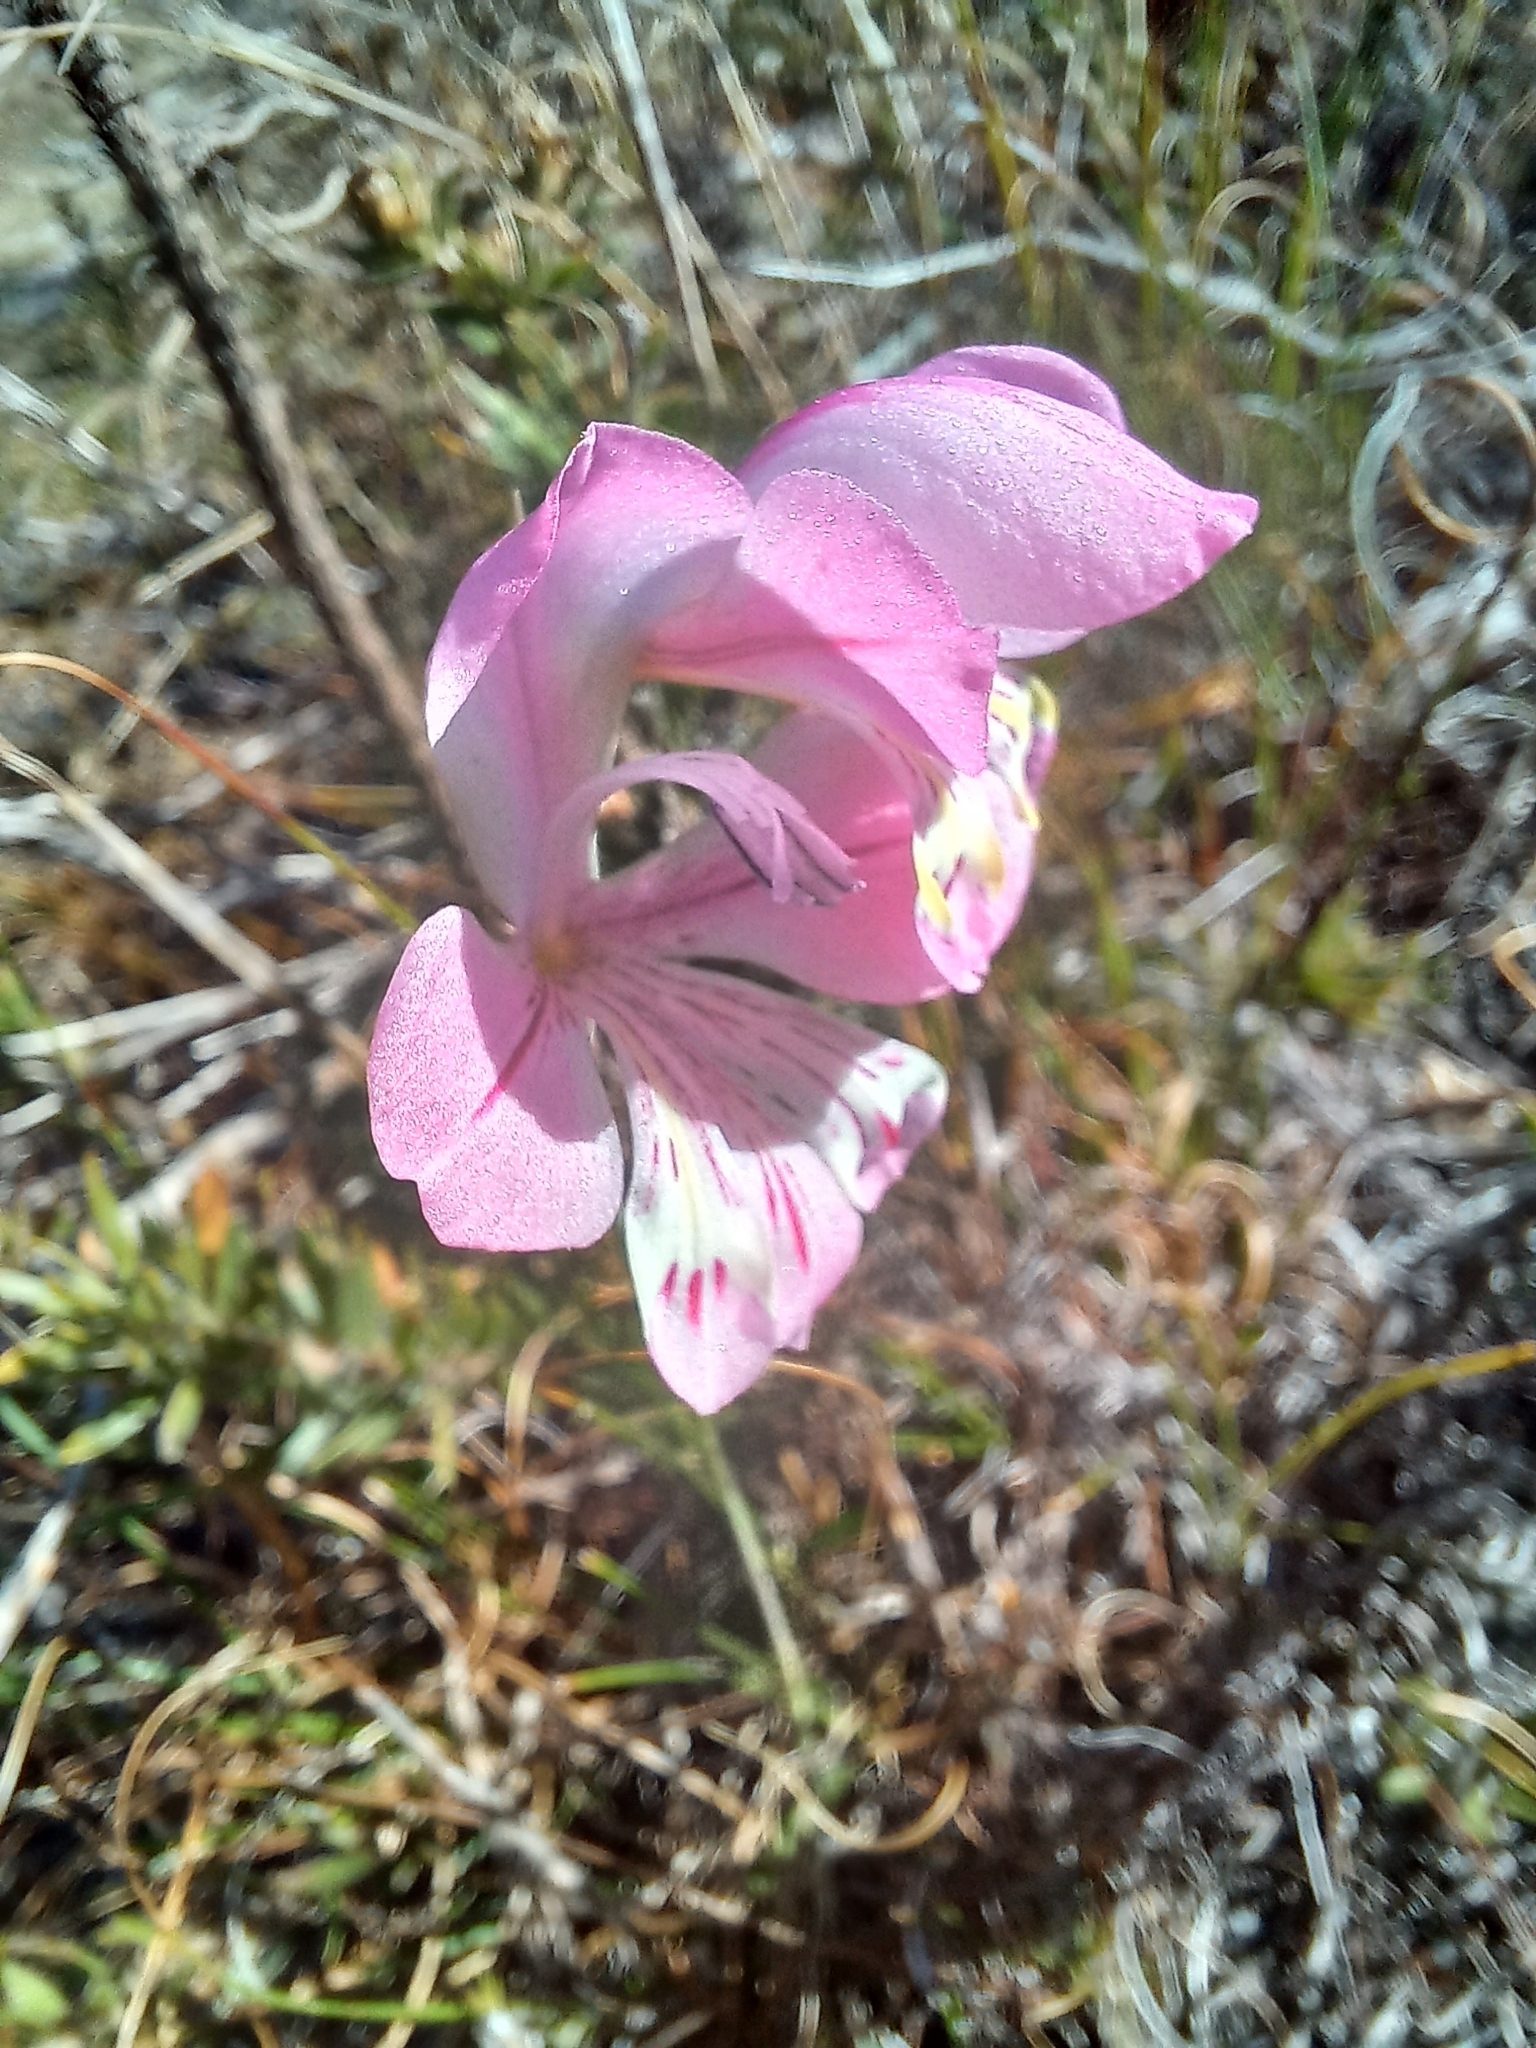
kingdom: Plantae
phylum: Tracheophyta
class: Liliopsida
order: Asparagales
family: Iridaceae
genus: Gladiolus
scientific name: Gladiolus brevifolius
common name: March pypie
